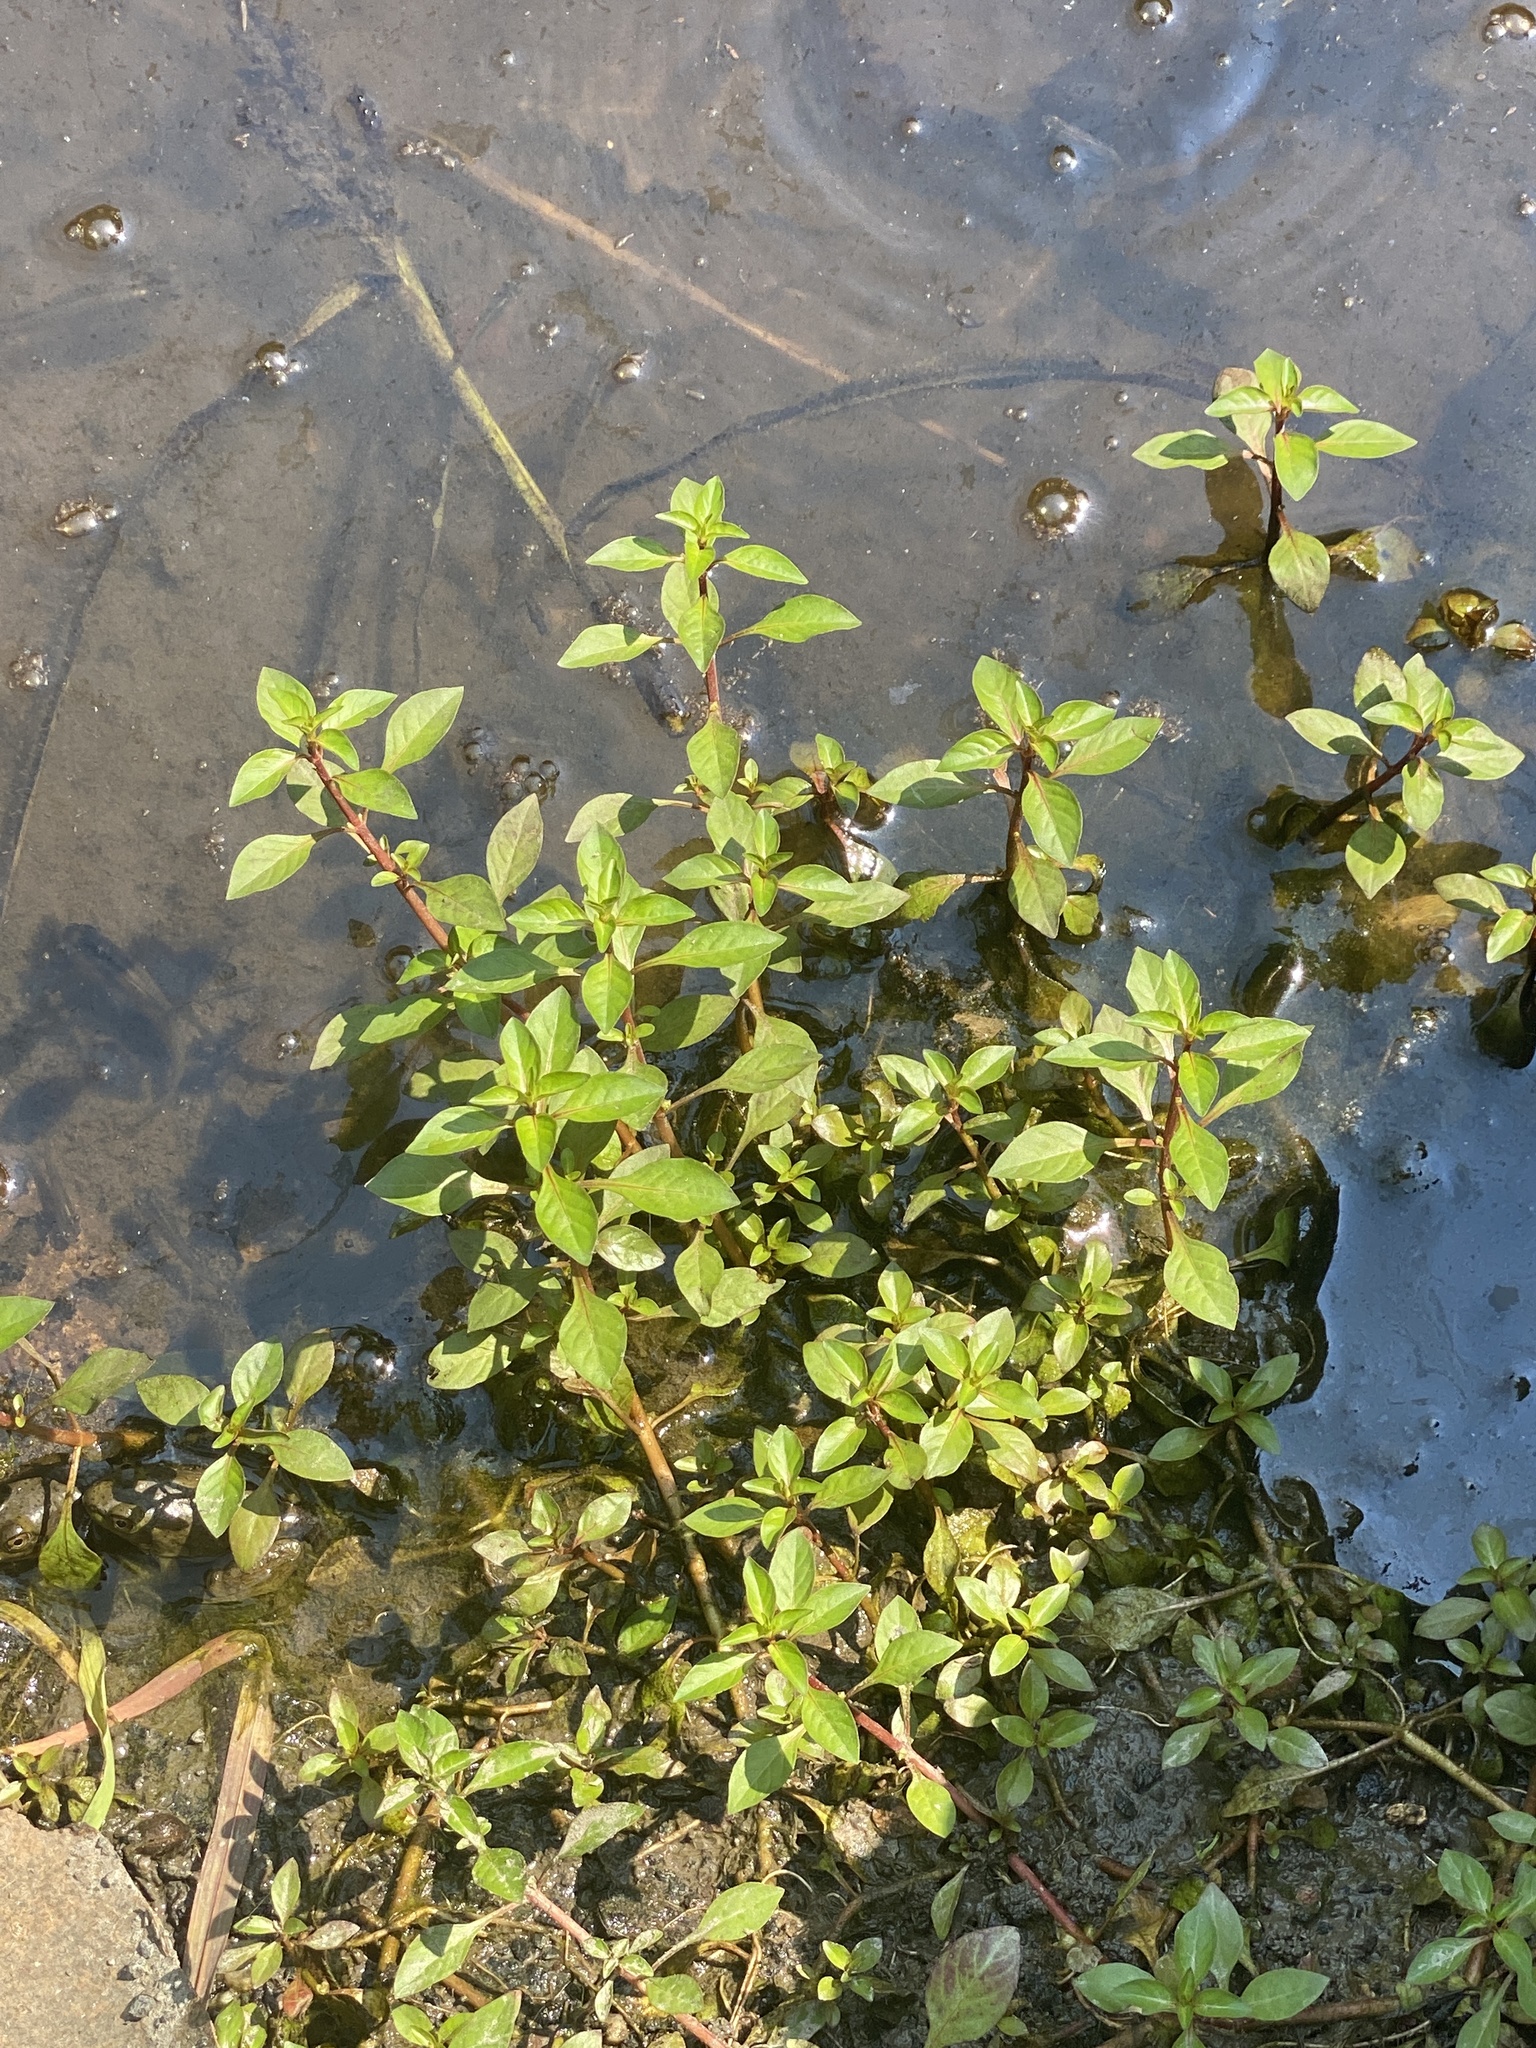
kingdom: Plantae
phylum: Tracheophyta
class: Magnoliopsida
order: Myrtales
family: Onagraceae
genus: Ludwigia
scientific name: Ludwigia palustris
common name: Hampshire-purslane
